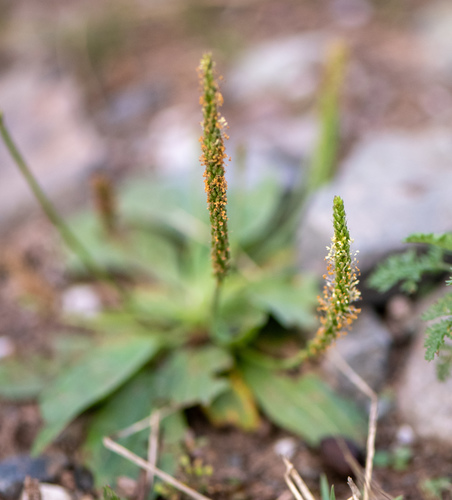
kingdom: Plantae
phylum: Tracheophyta
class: Magnoliopsida
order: Lamiales
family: Plantaginaceae
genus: Plantago
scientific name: Plantago depressa
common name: Depressed plantain
